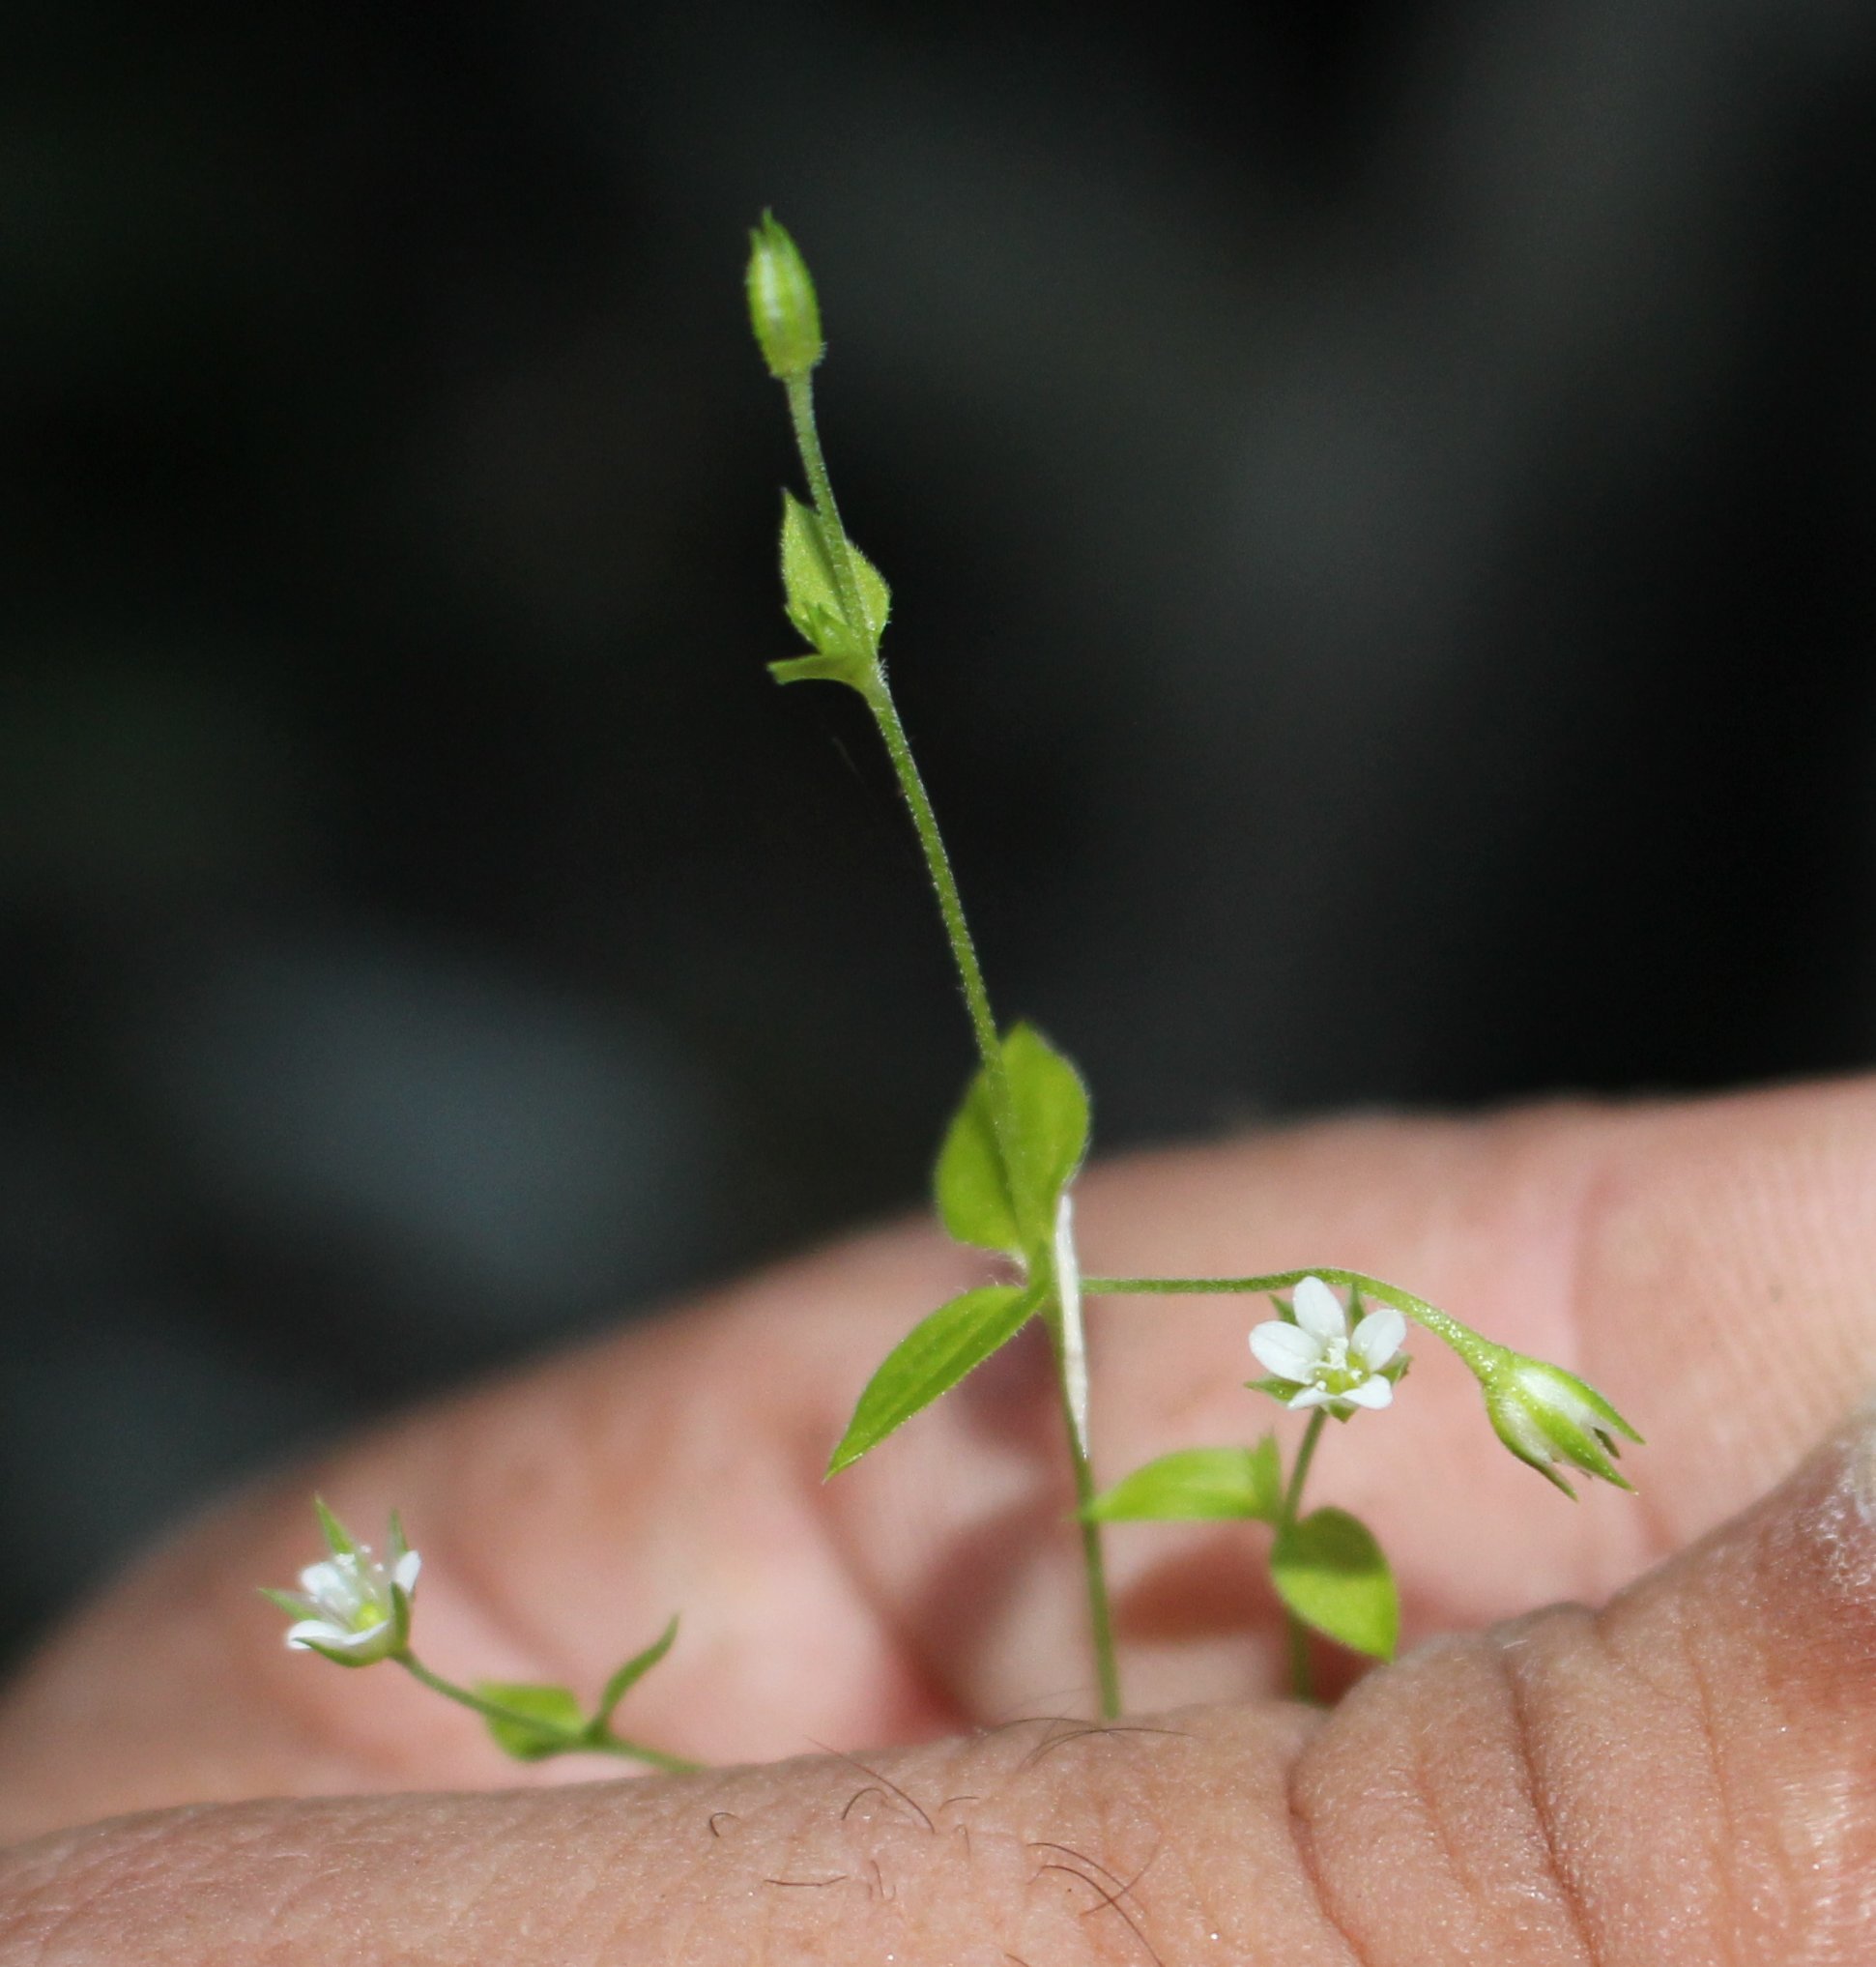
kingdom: Plantae
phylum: Tracheophyta
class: Magnoliopsida
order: Caryophyllales
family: Caryophyllaceae
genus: Moehringia
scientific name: Moehringia trinervia
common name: Three-nerved sandwort
